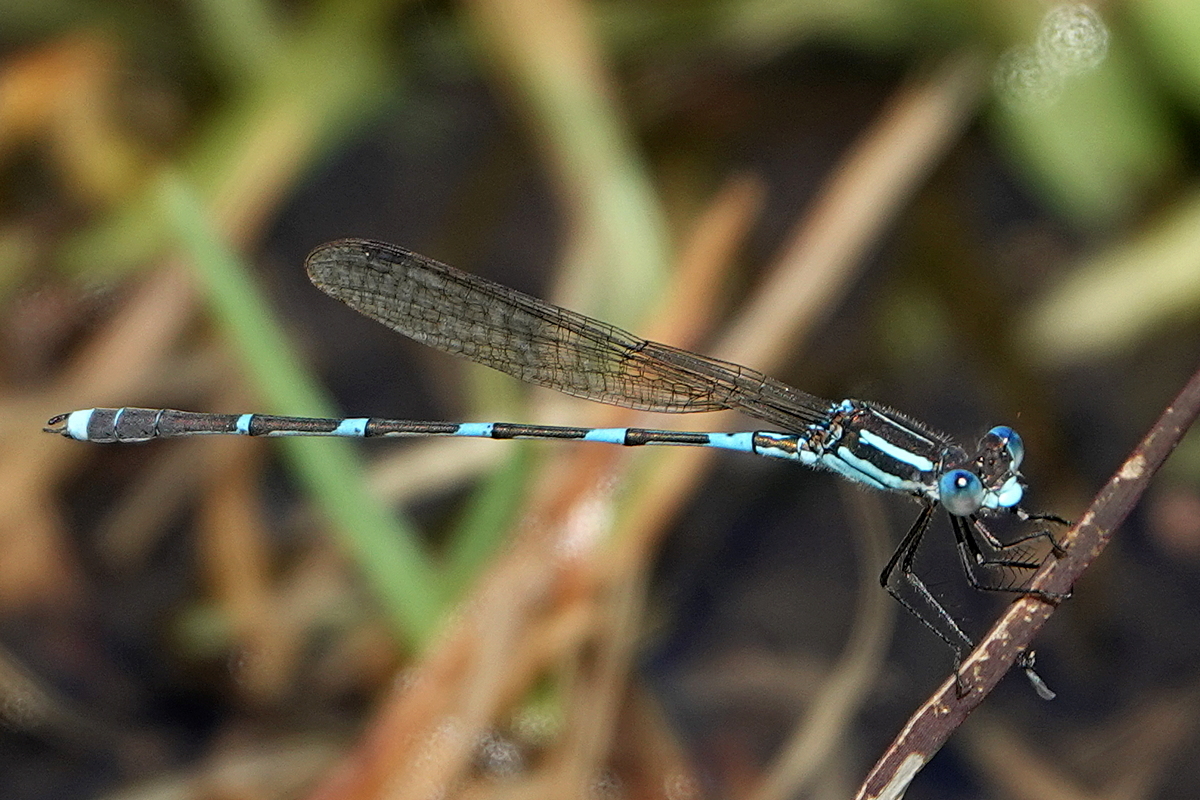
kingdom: Animalia
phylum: Arthropoda
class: Insecta
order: Odonata
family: Lestidae
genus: Austrolestes
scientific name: Austrolestes leda
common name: Wandering ringtail
